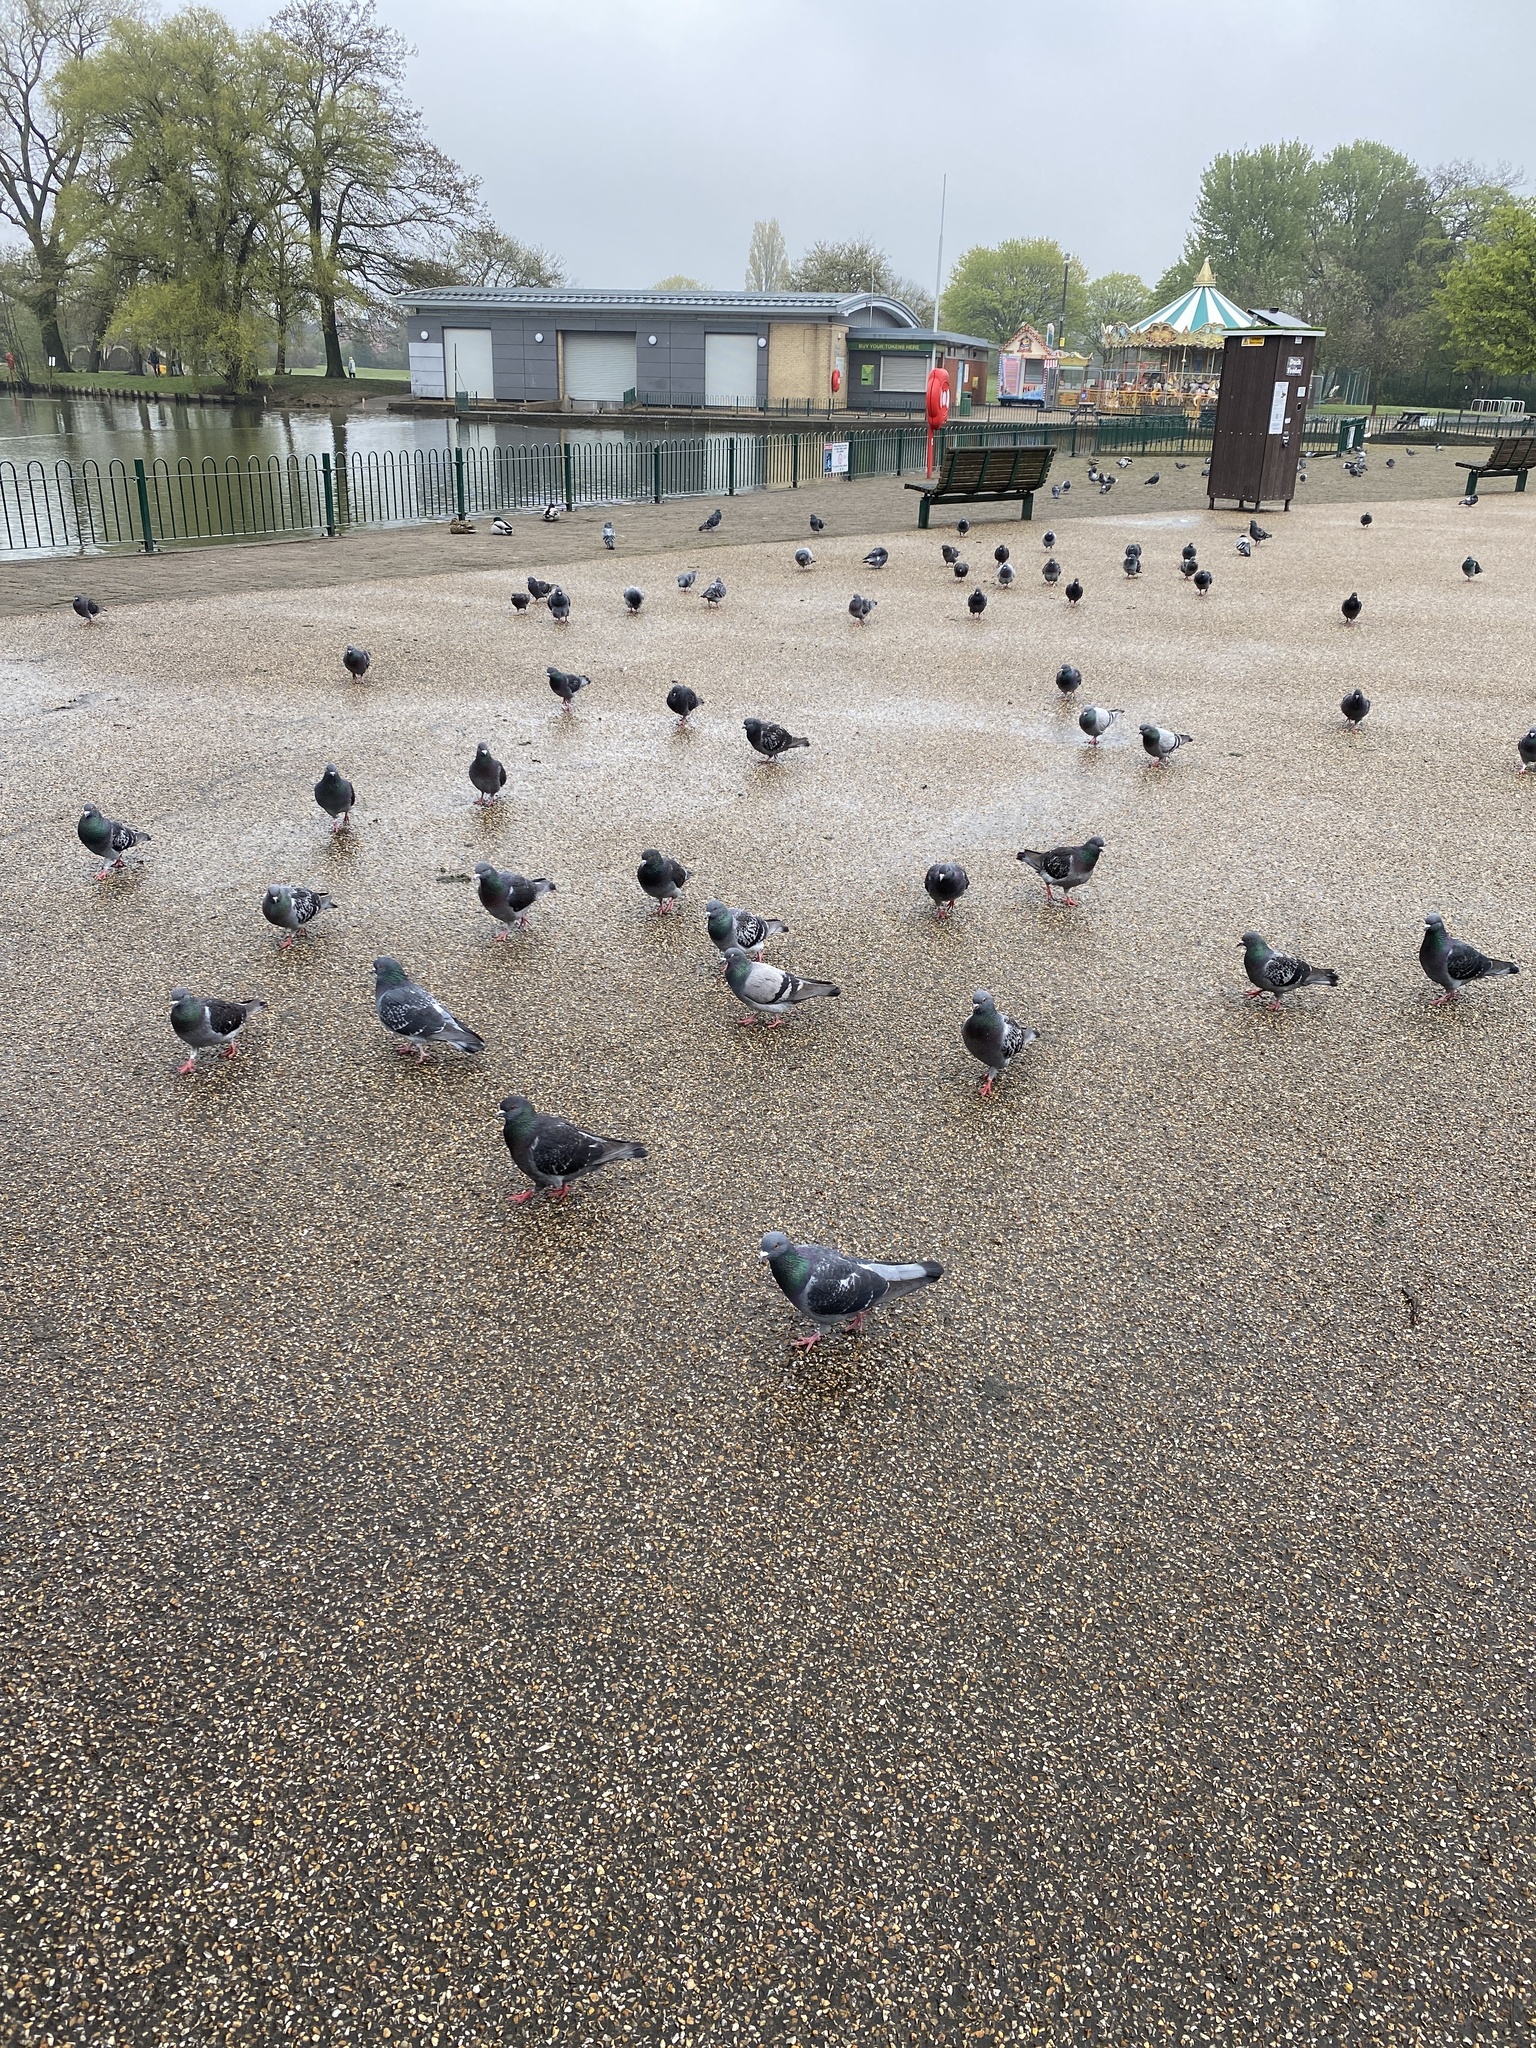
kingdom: Animalia
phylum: Chordata
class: Aves
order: Columbiformes
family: Columbidae
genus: Columba
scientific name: Columba livia
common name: Rock pigeon
